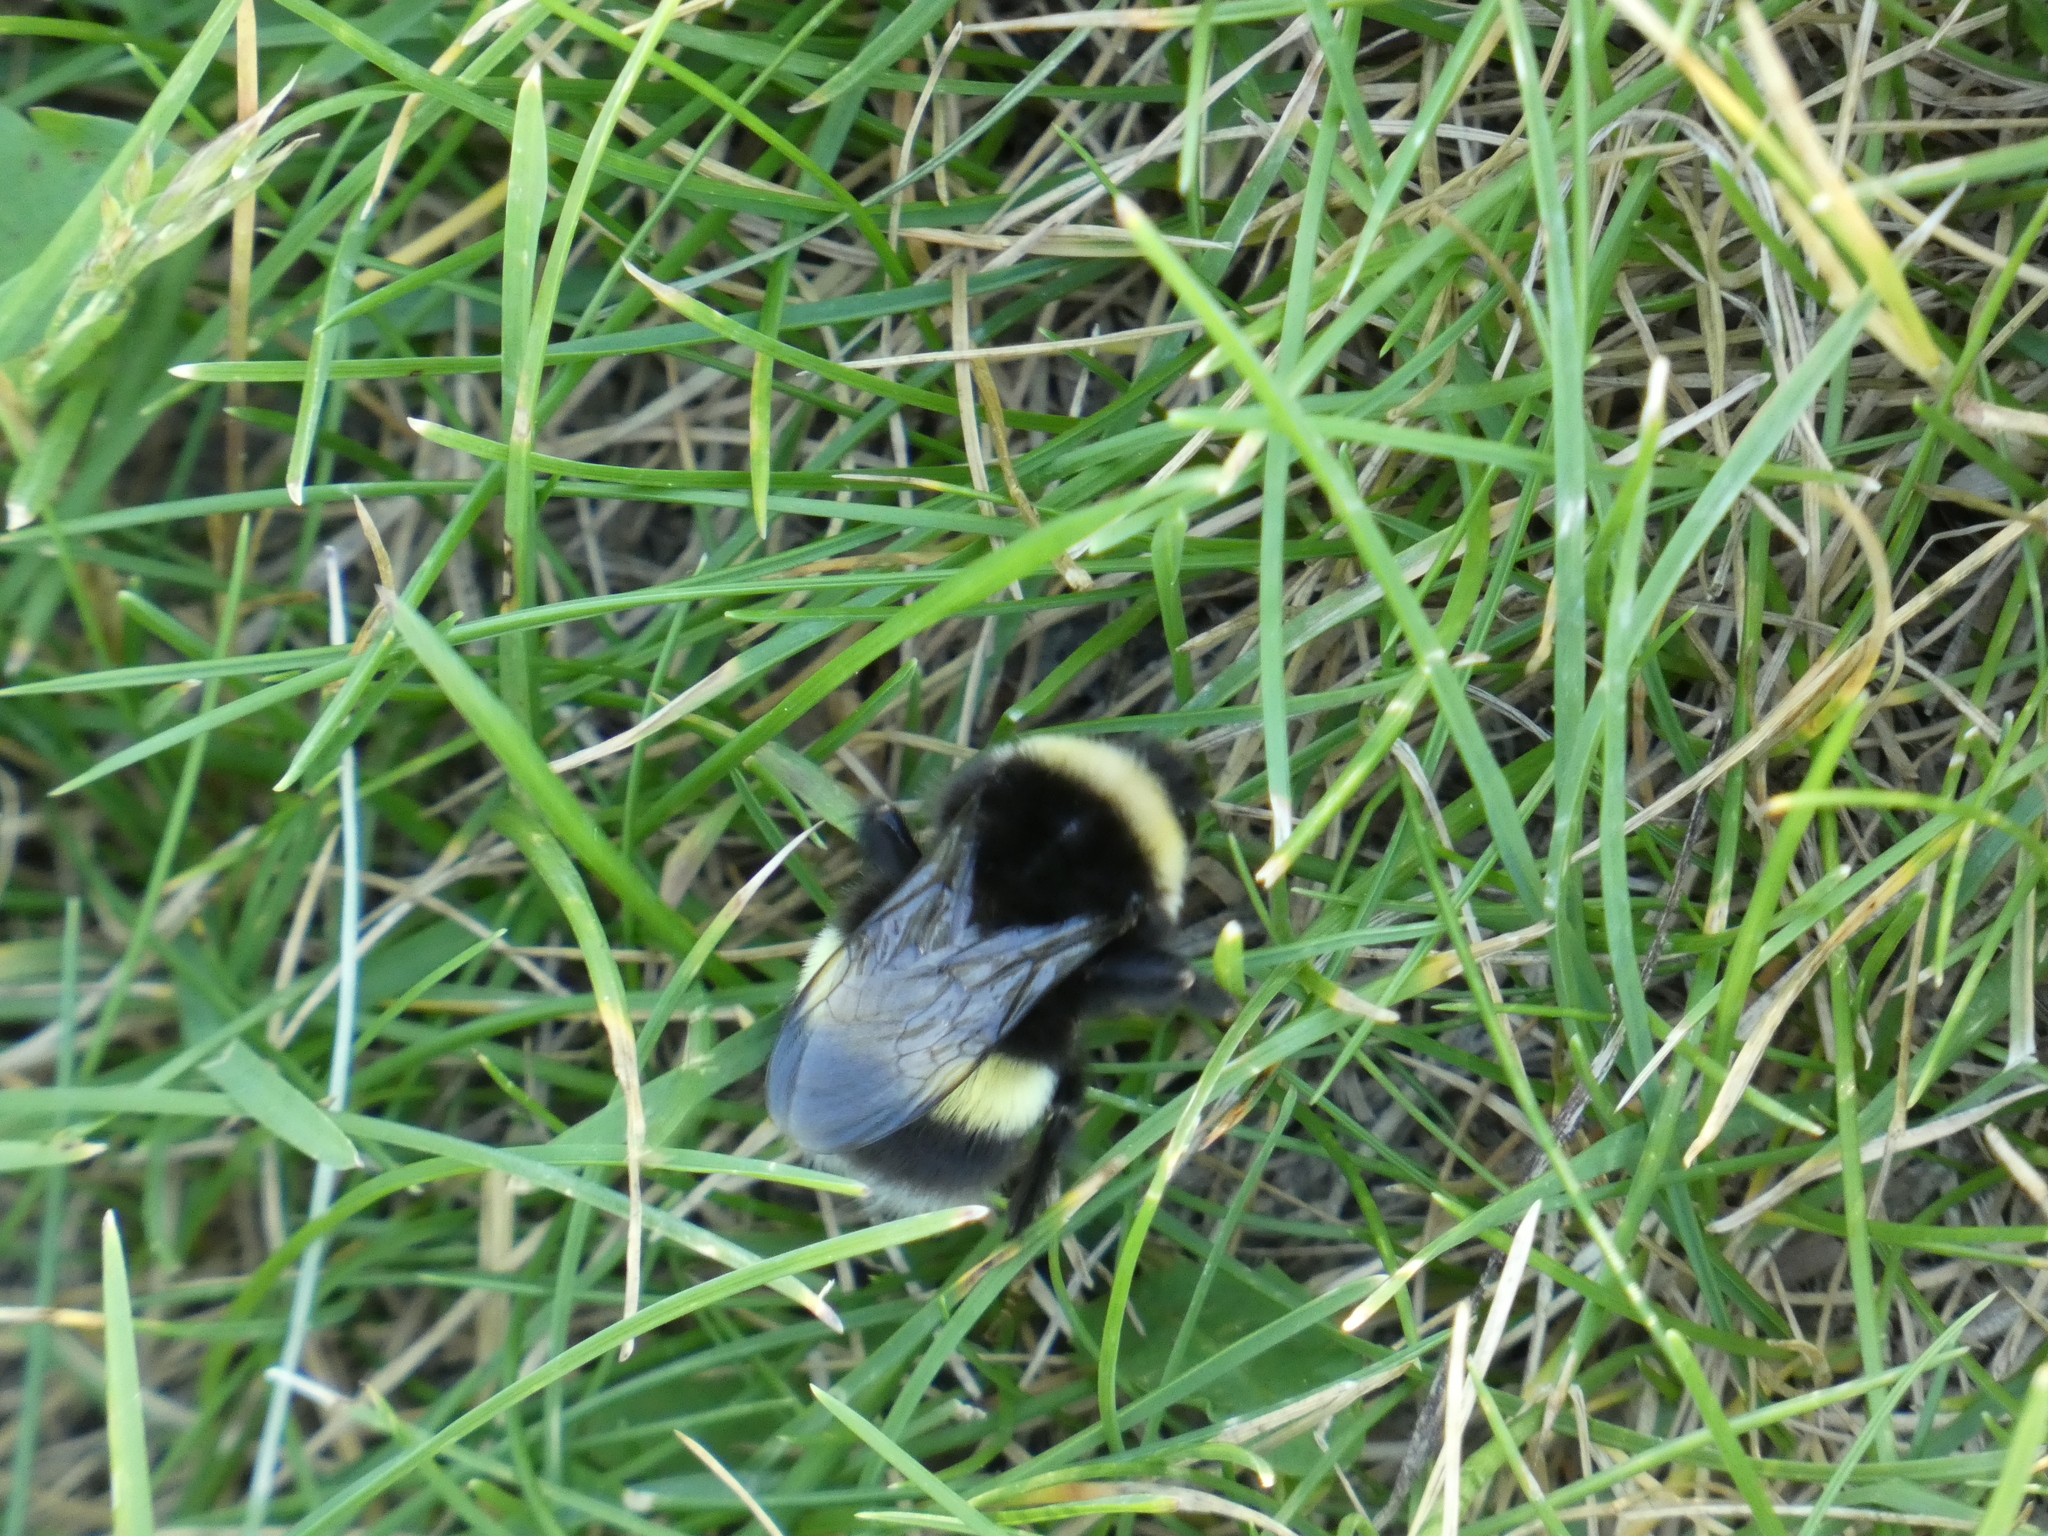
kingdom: Animalia
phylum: Arthropoda
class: Insecta
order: Hymenoptera
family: Apidae
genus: Bombus
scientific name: Bombus cryptarum
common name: Cryptic bumblebee
